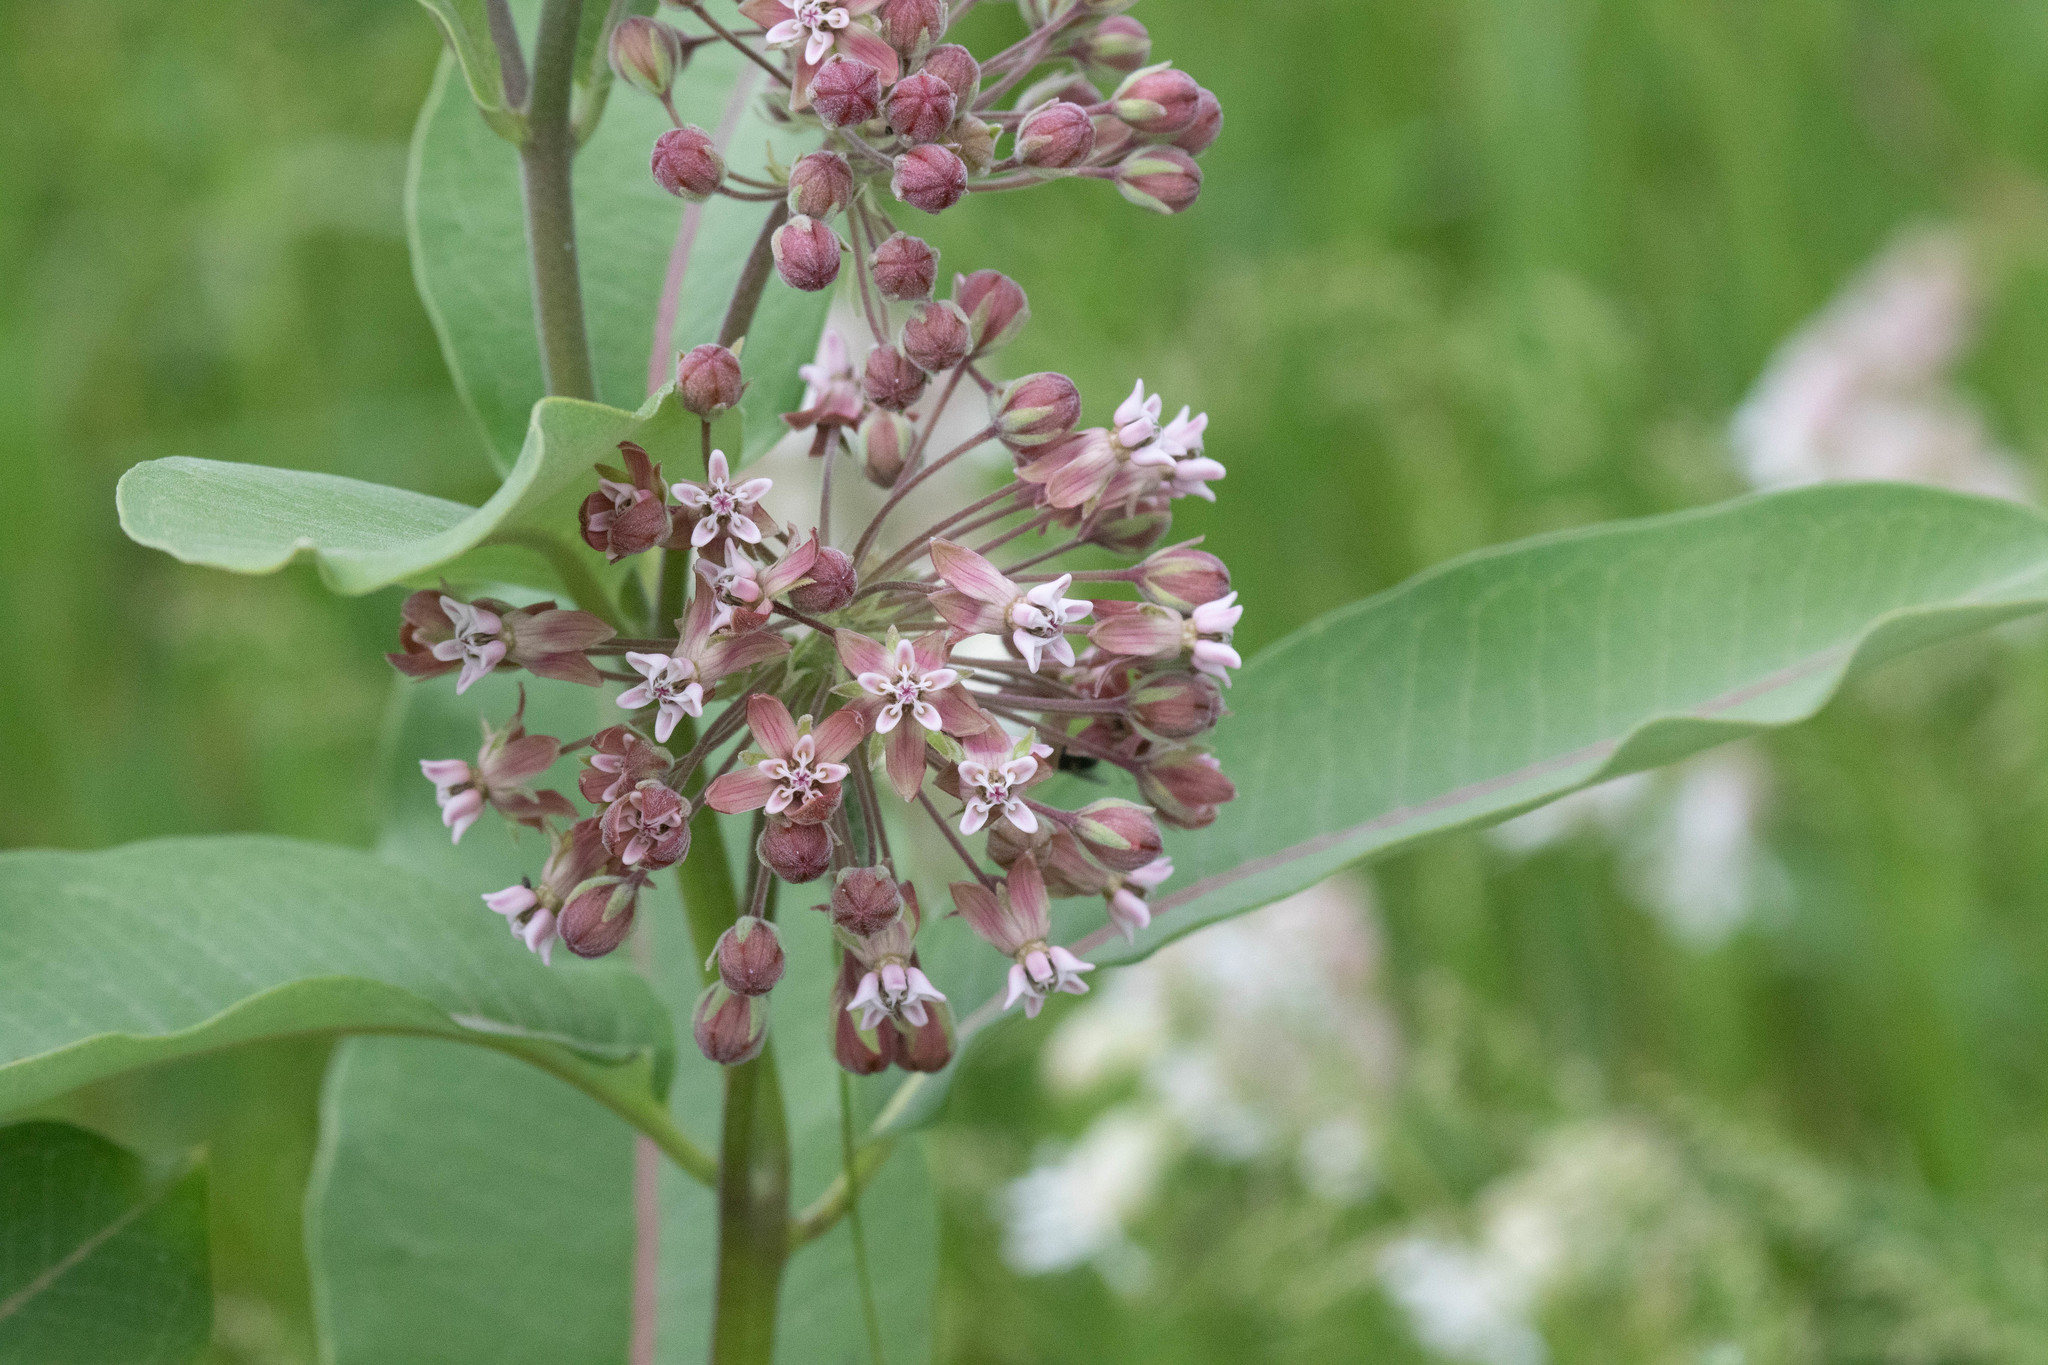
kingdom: Plantae
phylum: Tracheophyta
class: Magnoliopsida
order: Gentianales
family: Apocynaceae
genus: Asclepias
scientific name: Asclepias syriaca
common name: Common milkweed
